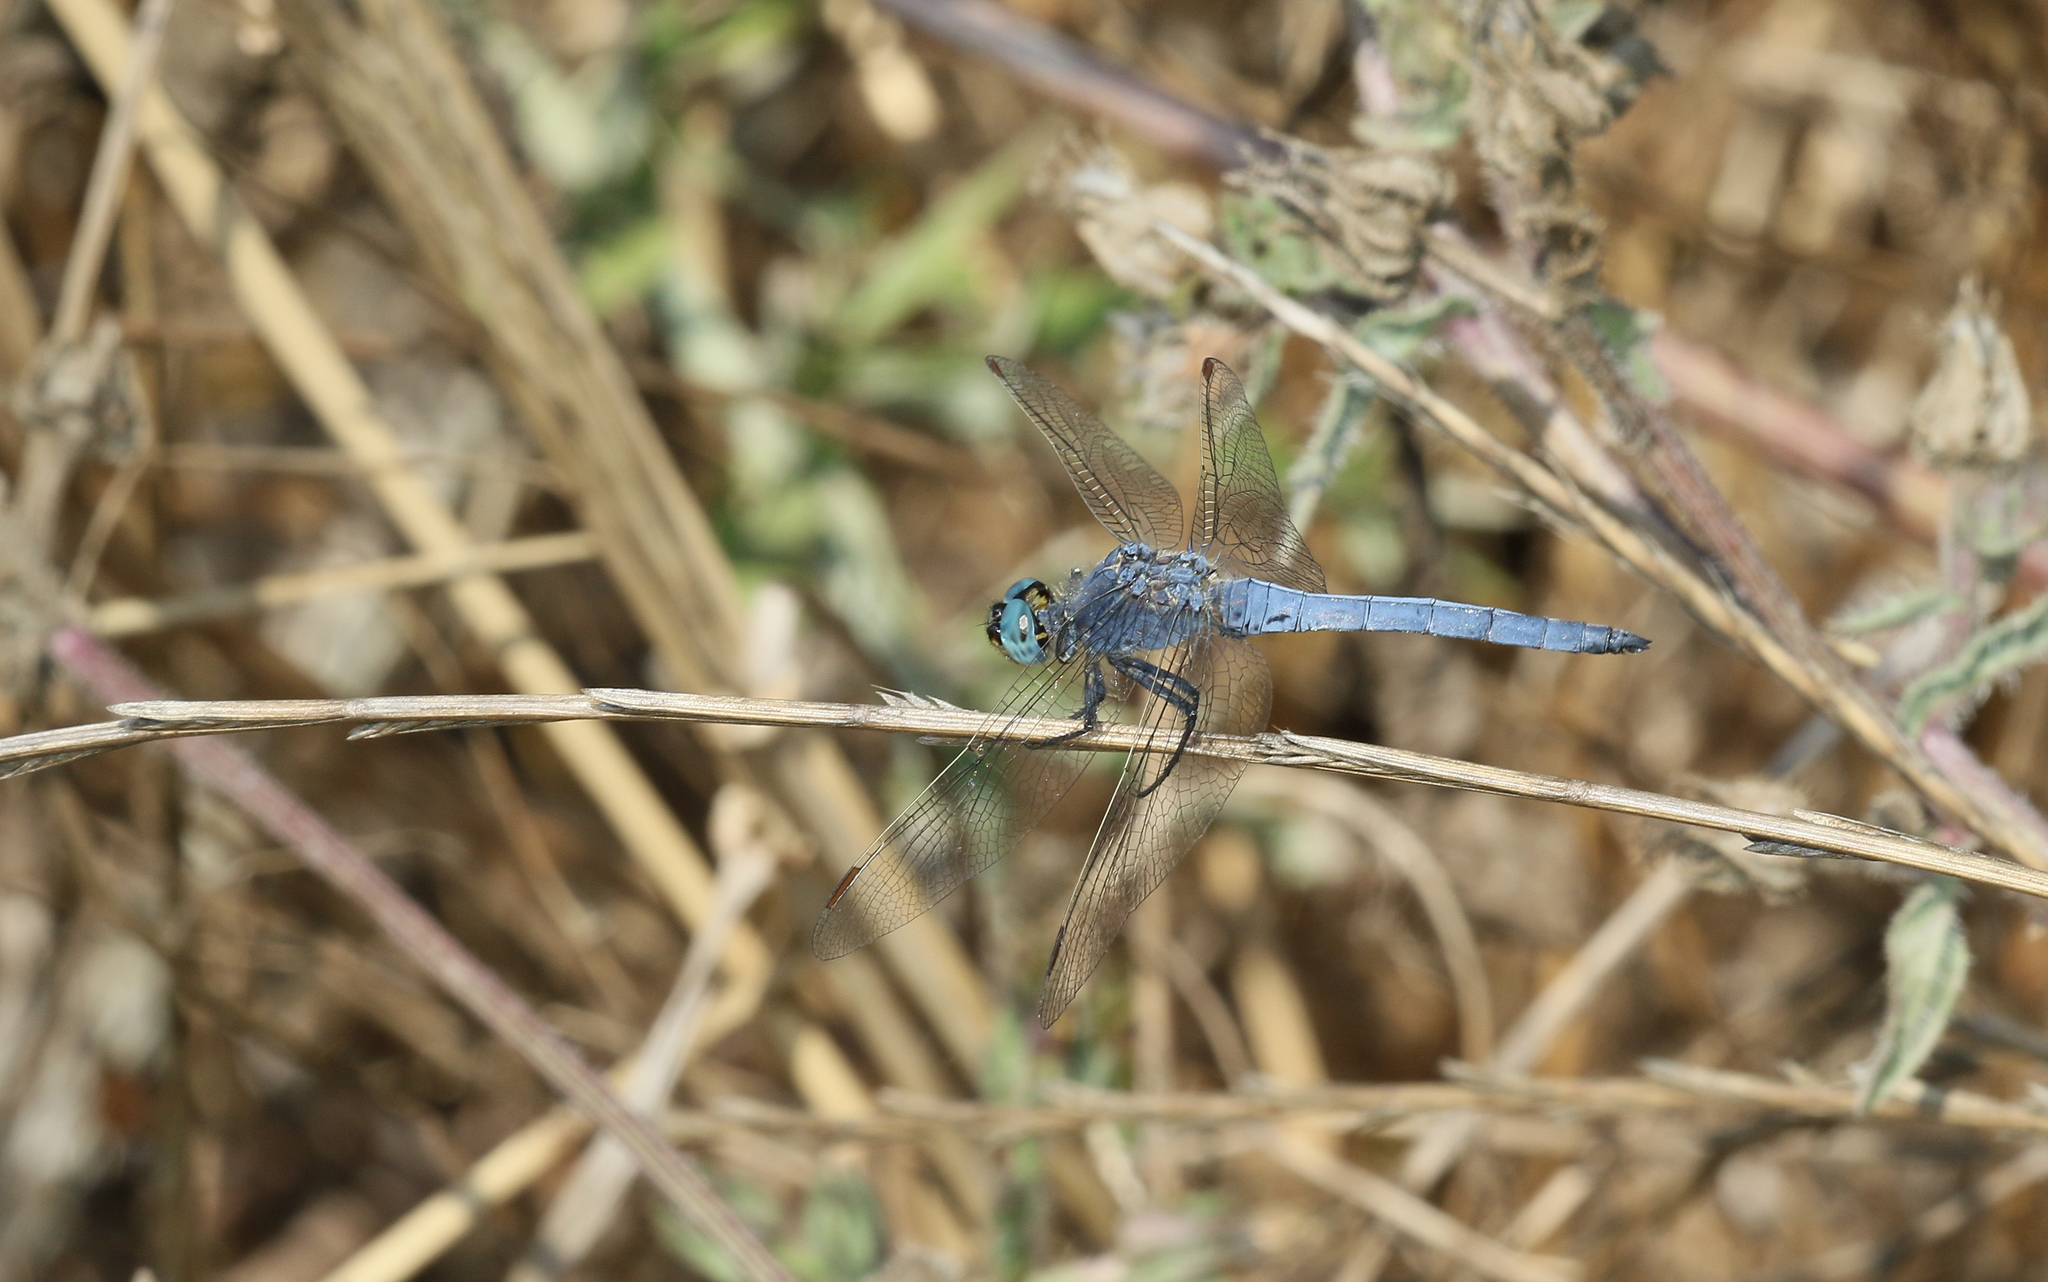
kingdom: Animalia
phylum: Arthropoda
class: Insecta
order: Odonata
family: Libellulidae
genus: Orthetrum
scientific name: Orthetrum coerulescens
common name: Keeled skimmer
